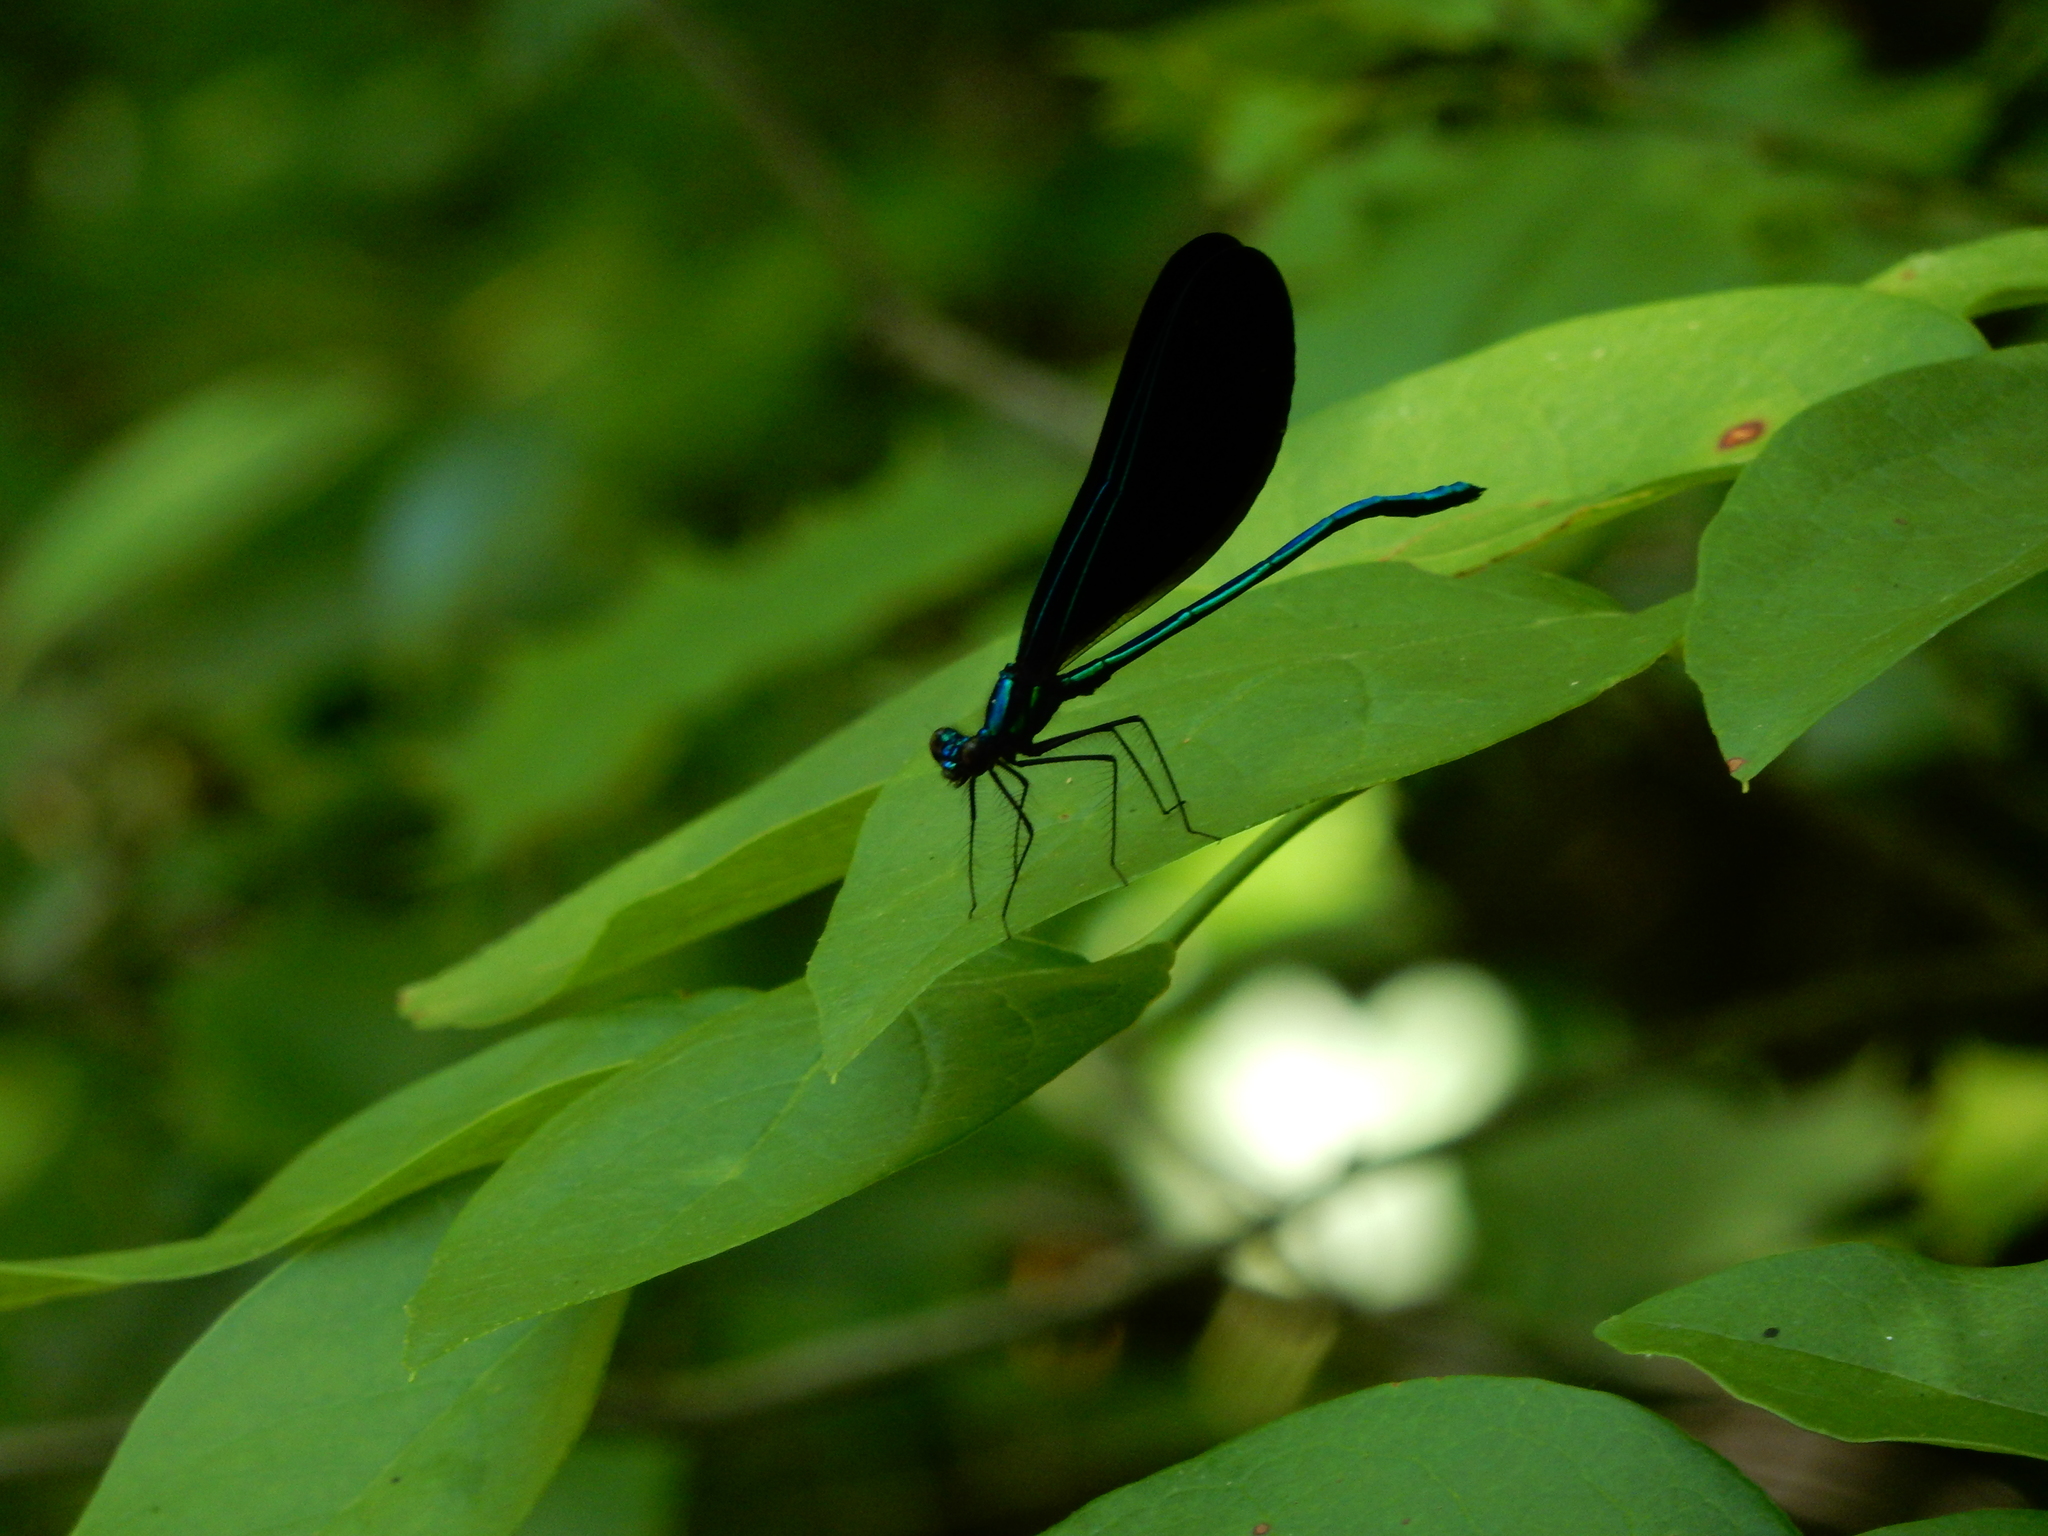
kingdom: Animalia
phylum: Arthropoda
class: Insecta
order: Odonata
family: Calopterygidae
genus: Calopteryx
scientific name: Calopteryx maculata
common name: Ebony jewelwing
